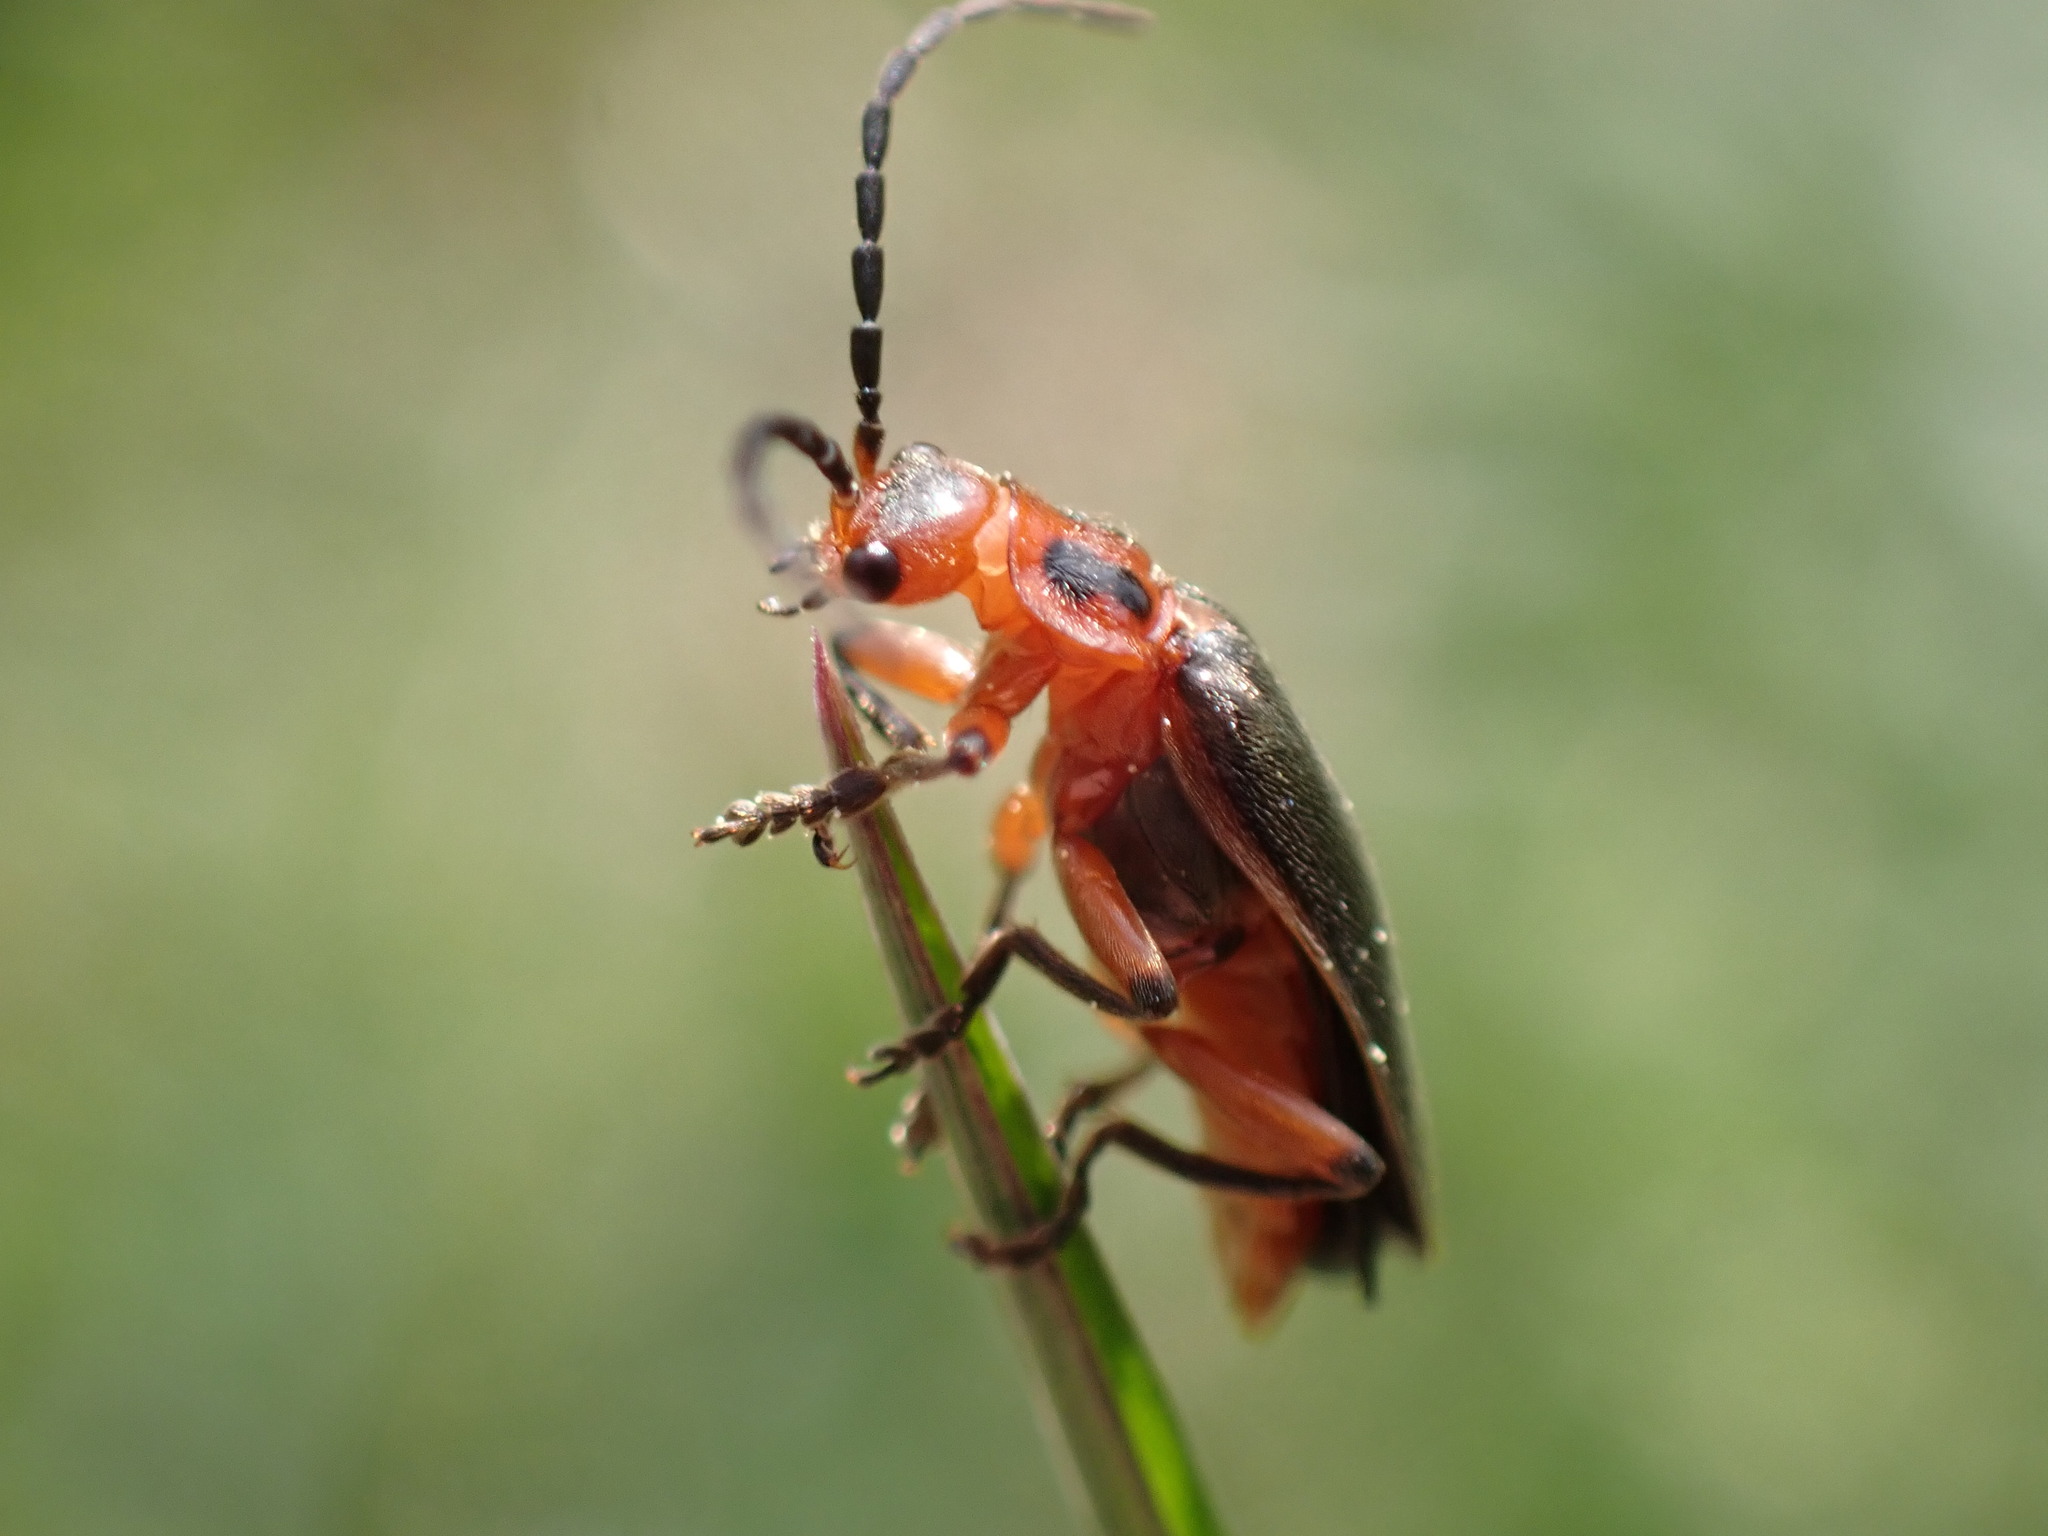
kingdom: Animalia
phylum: Arthropoda
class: Insecta
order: Coleoptera
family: Cantharidae
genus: Atalantycha
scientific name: Atalantycha bilineata
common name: Two-lined leatherwing
